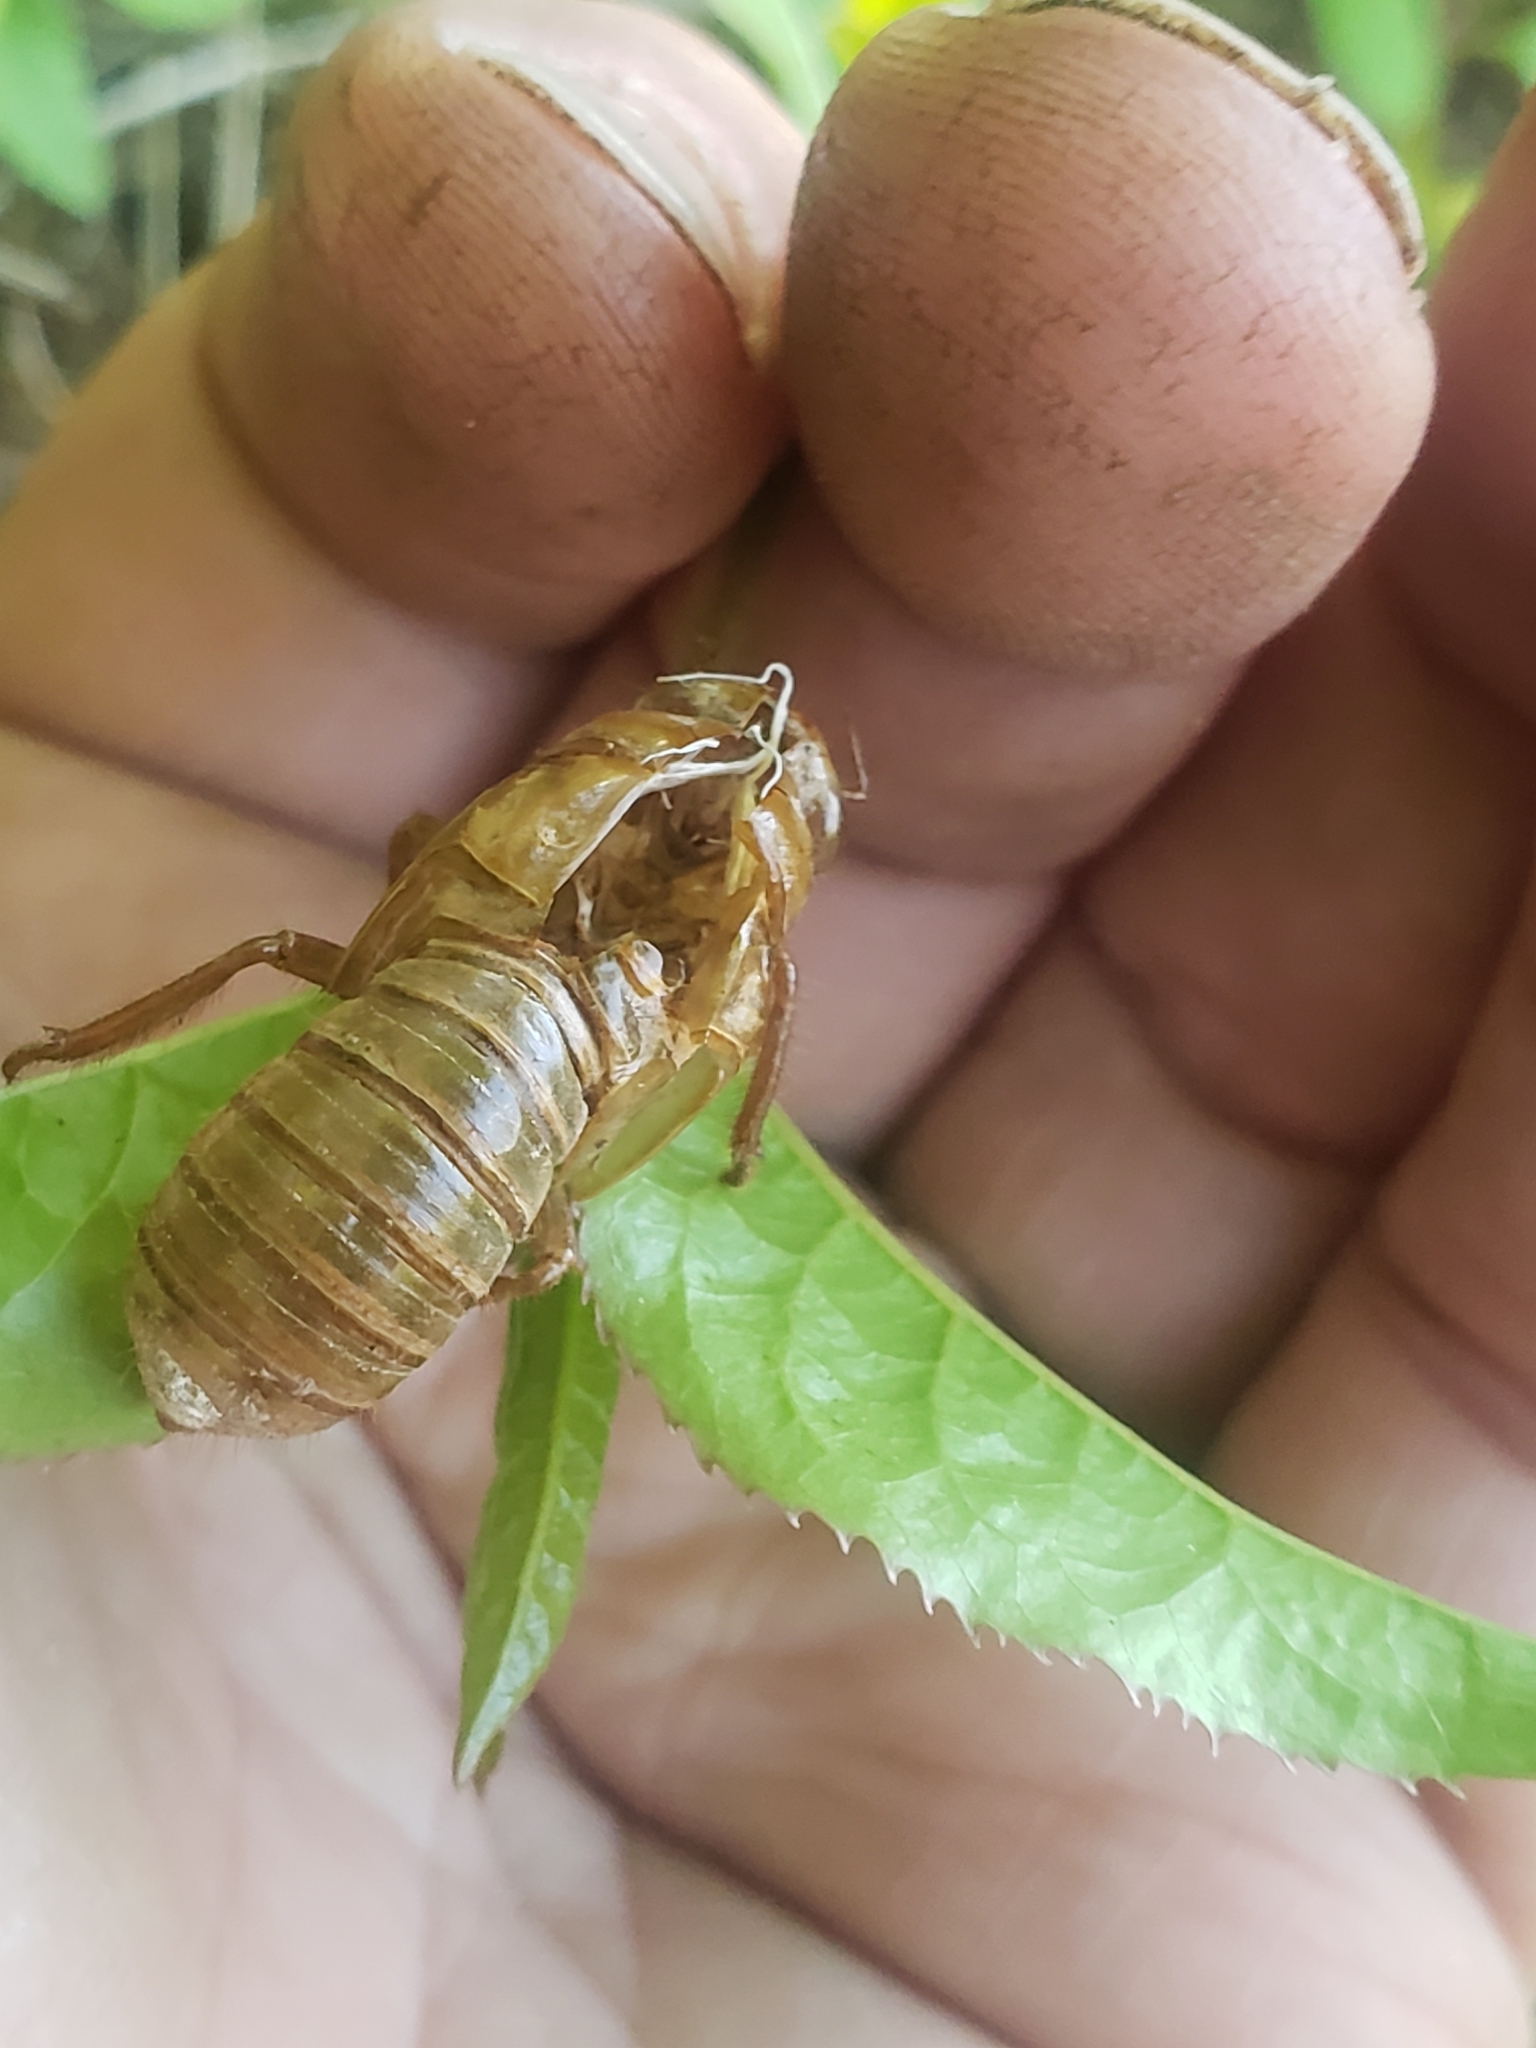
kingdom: Animalia
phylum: Arthropoda
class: Insecta
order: Hemiptera
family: Cicadidae
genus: Magicicada
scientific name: Magicicada
